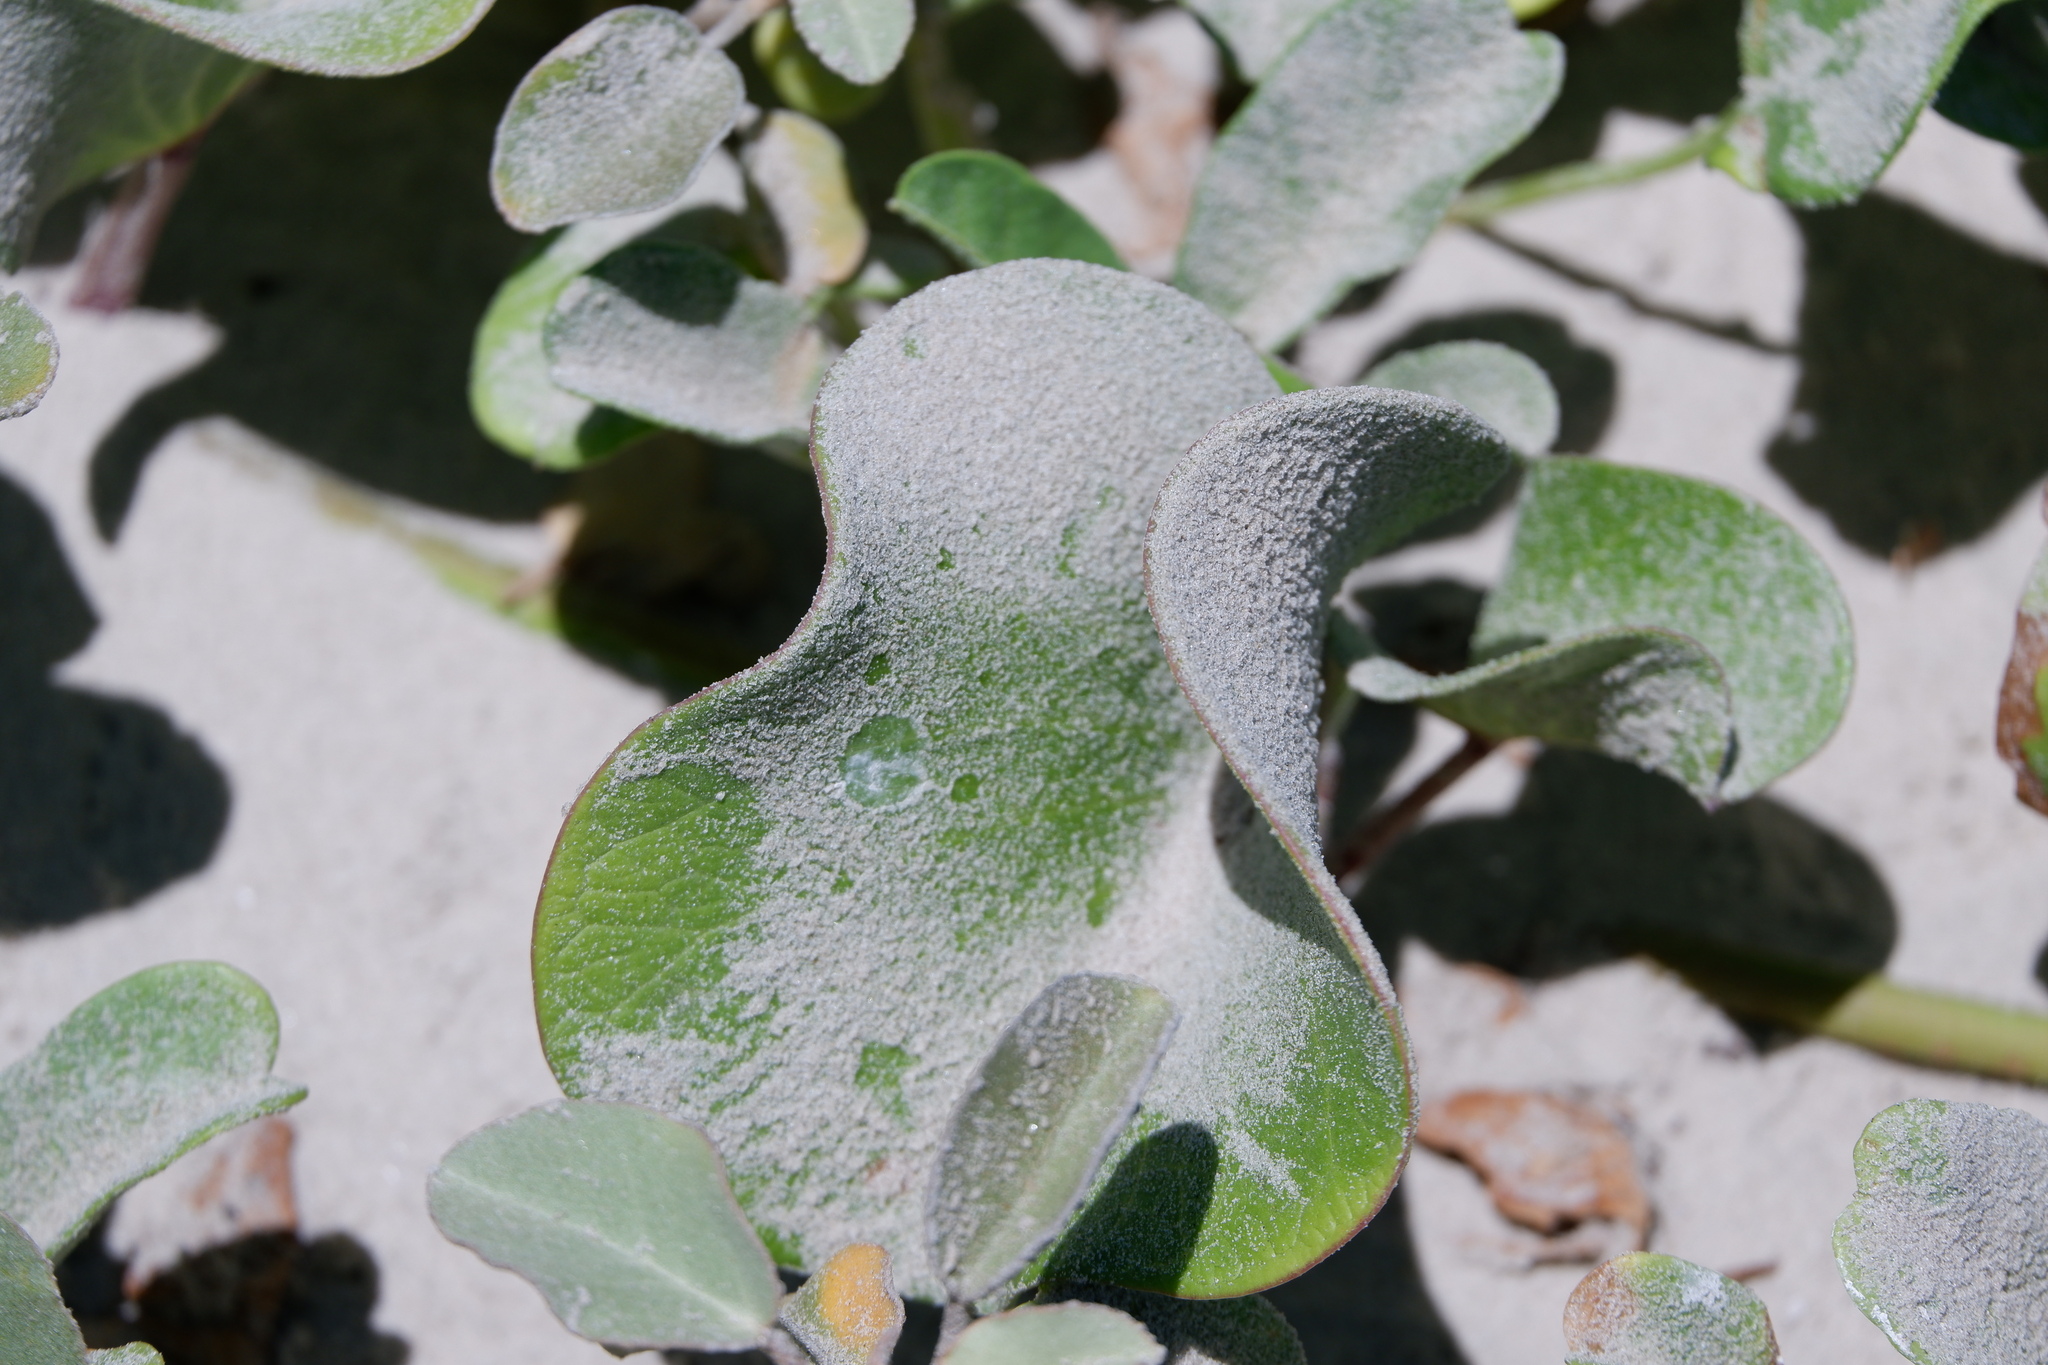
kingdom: Plantae
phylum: Tracheophyta
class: Magnoliopsida
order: Solanales
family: Convolvulaceae
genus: Ipomoea
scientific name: Ipomoea pes-caprae
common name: Beach morning glory
